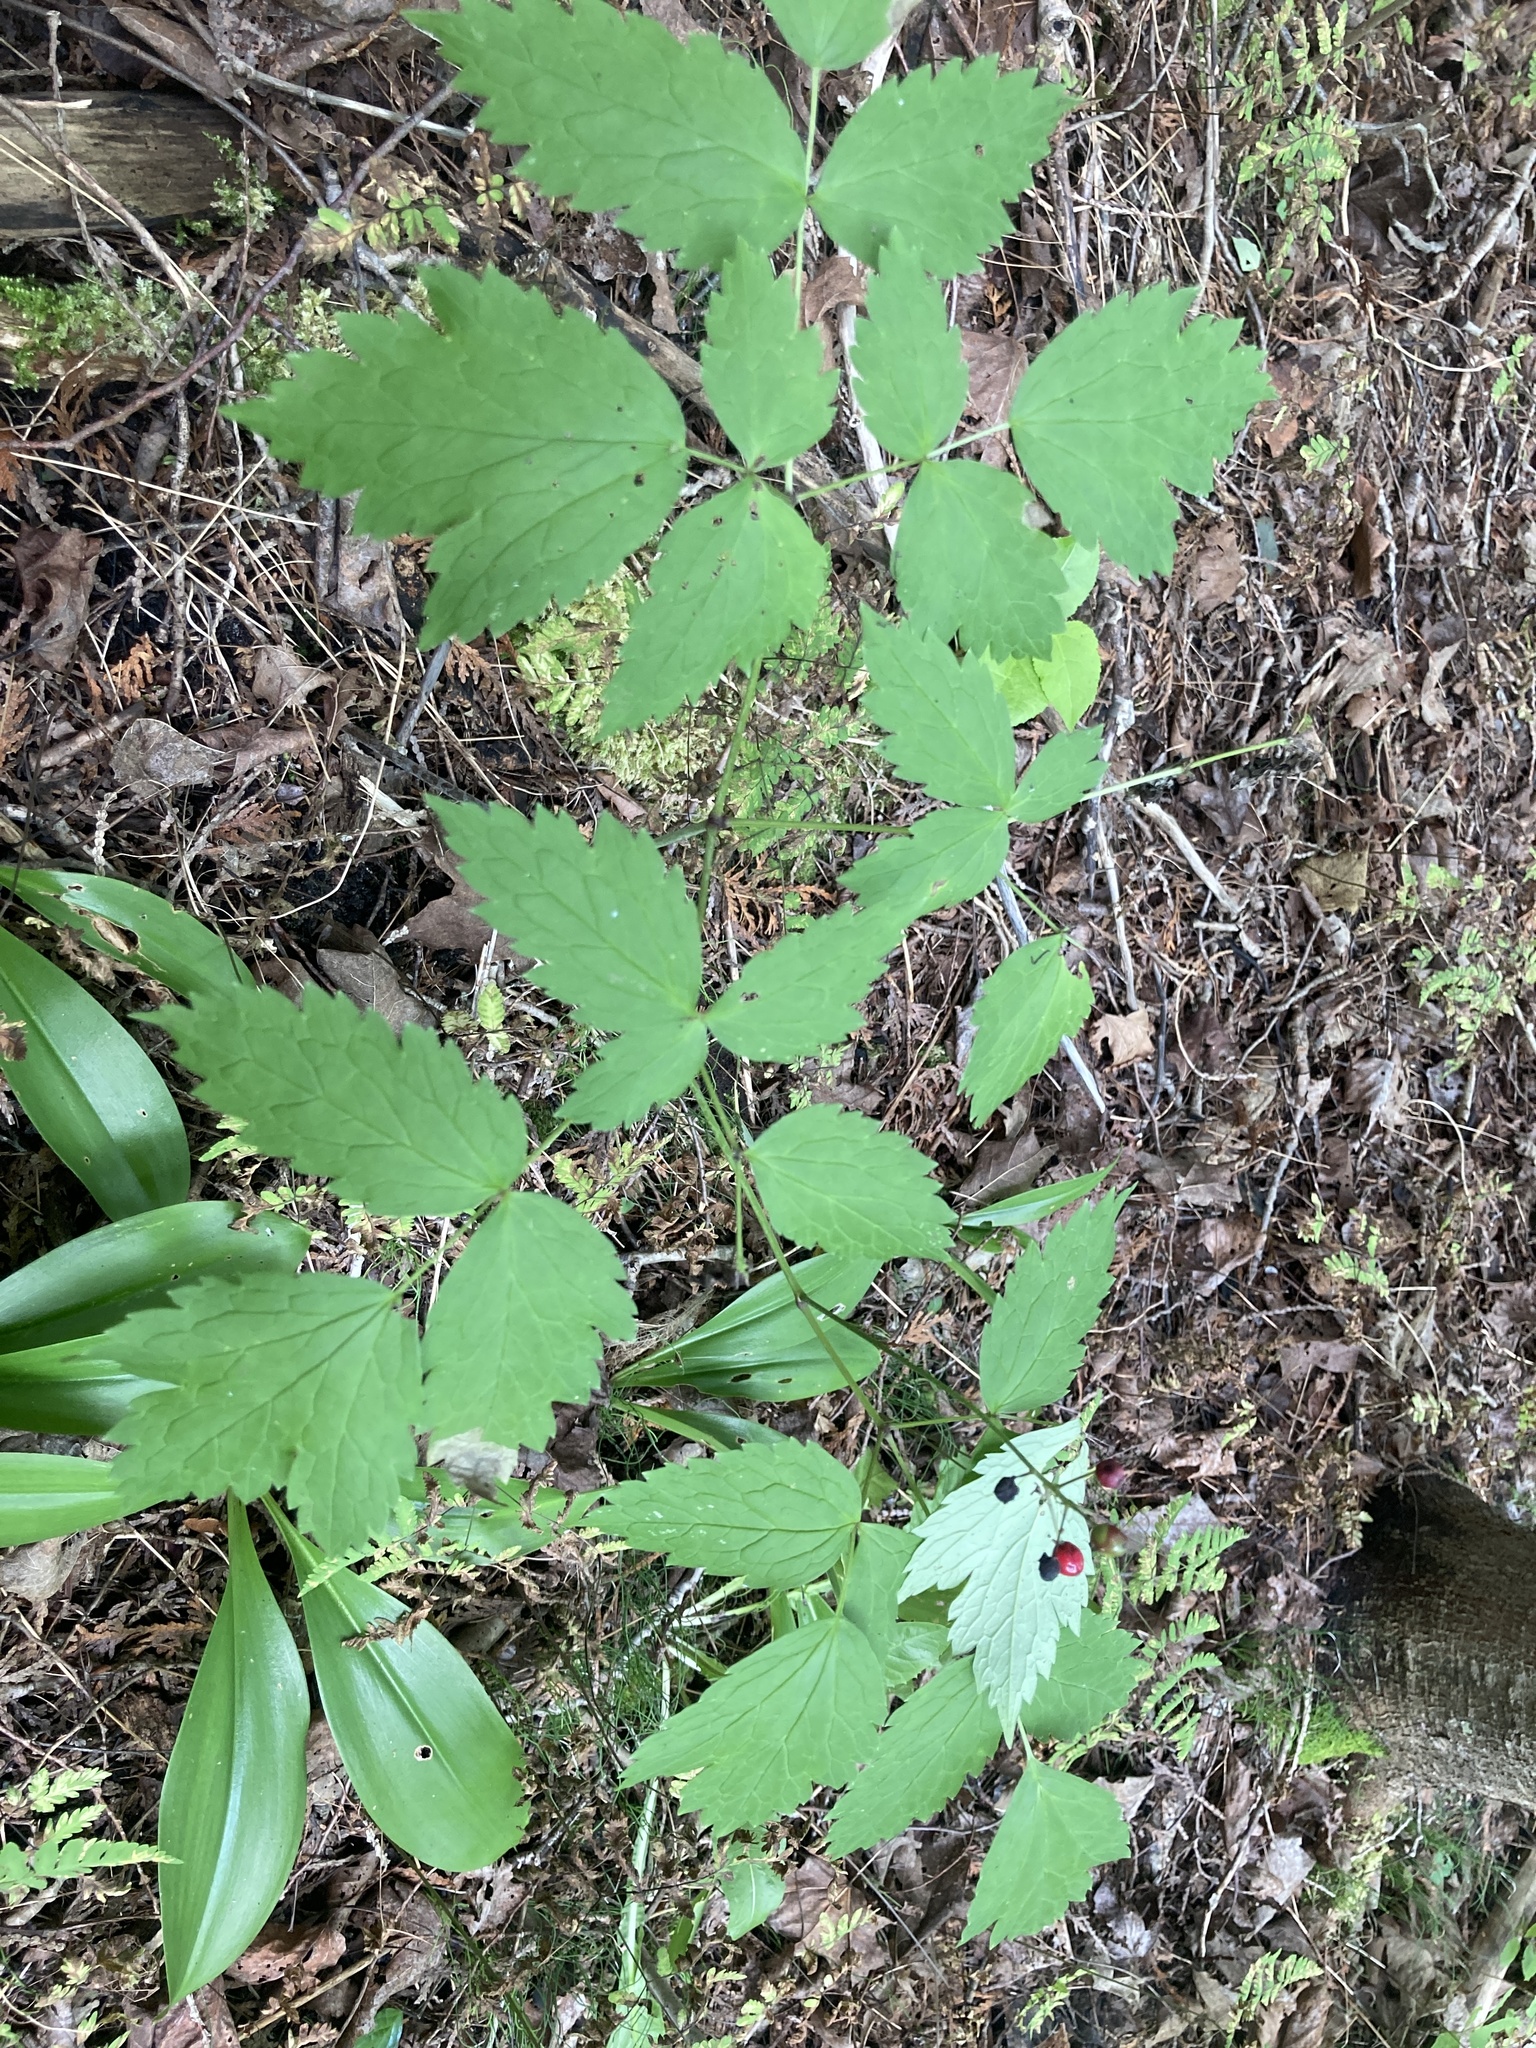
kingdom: Plantae
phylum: Tracheophyta
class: Magnoliopsida
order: Ranunculales
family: Ranunculaceae
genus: Actaea
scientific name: Actaea rubra
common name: Red baneberry
